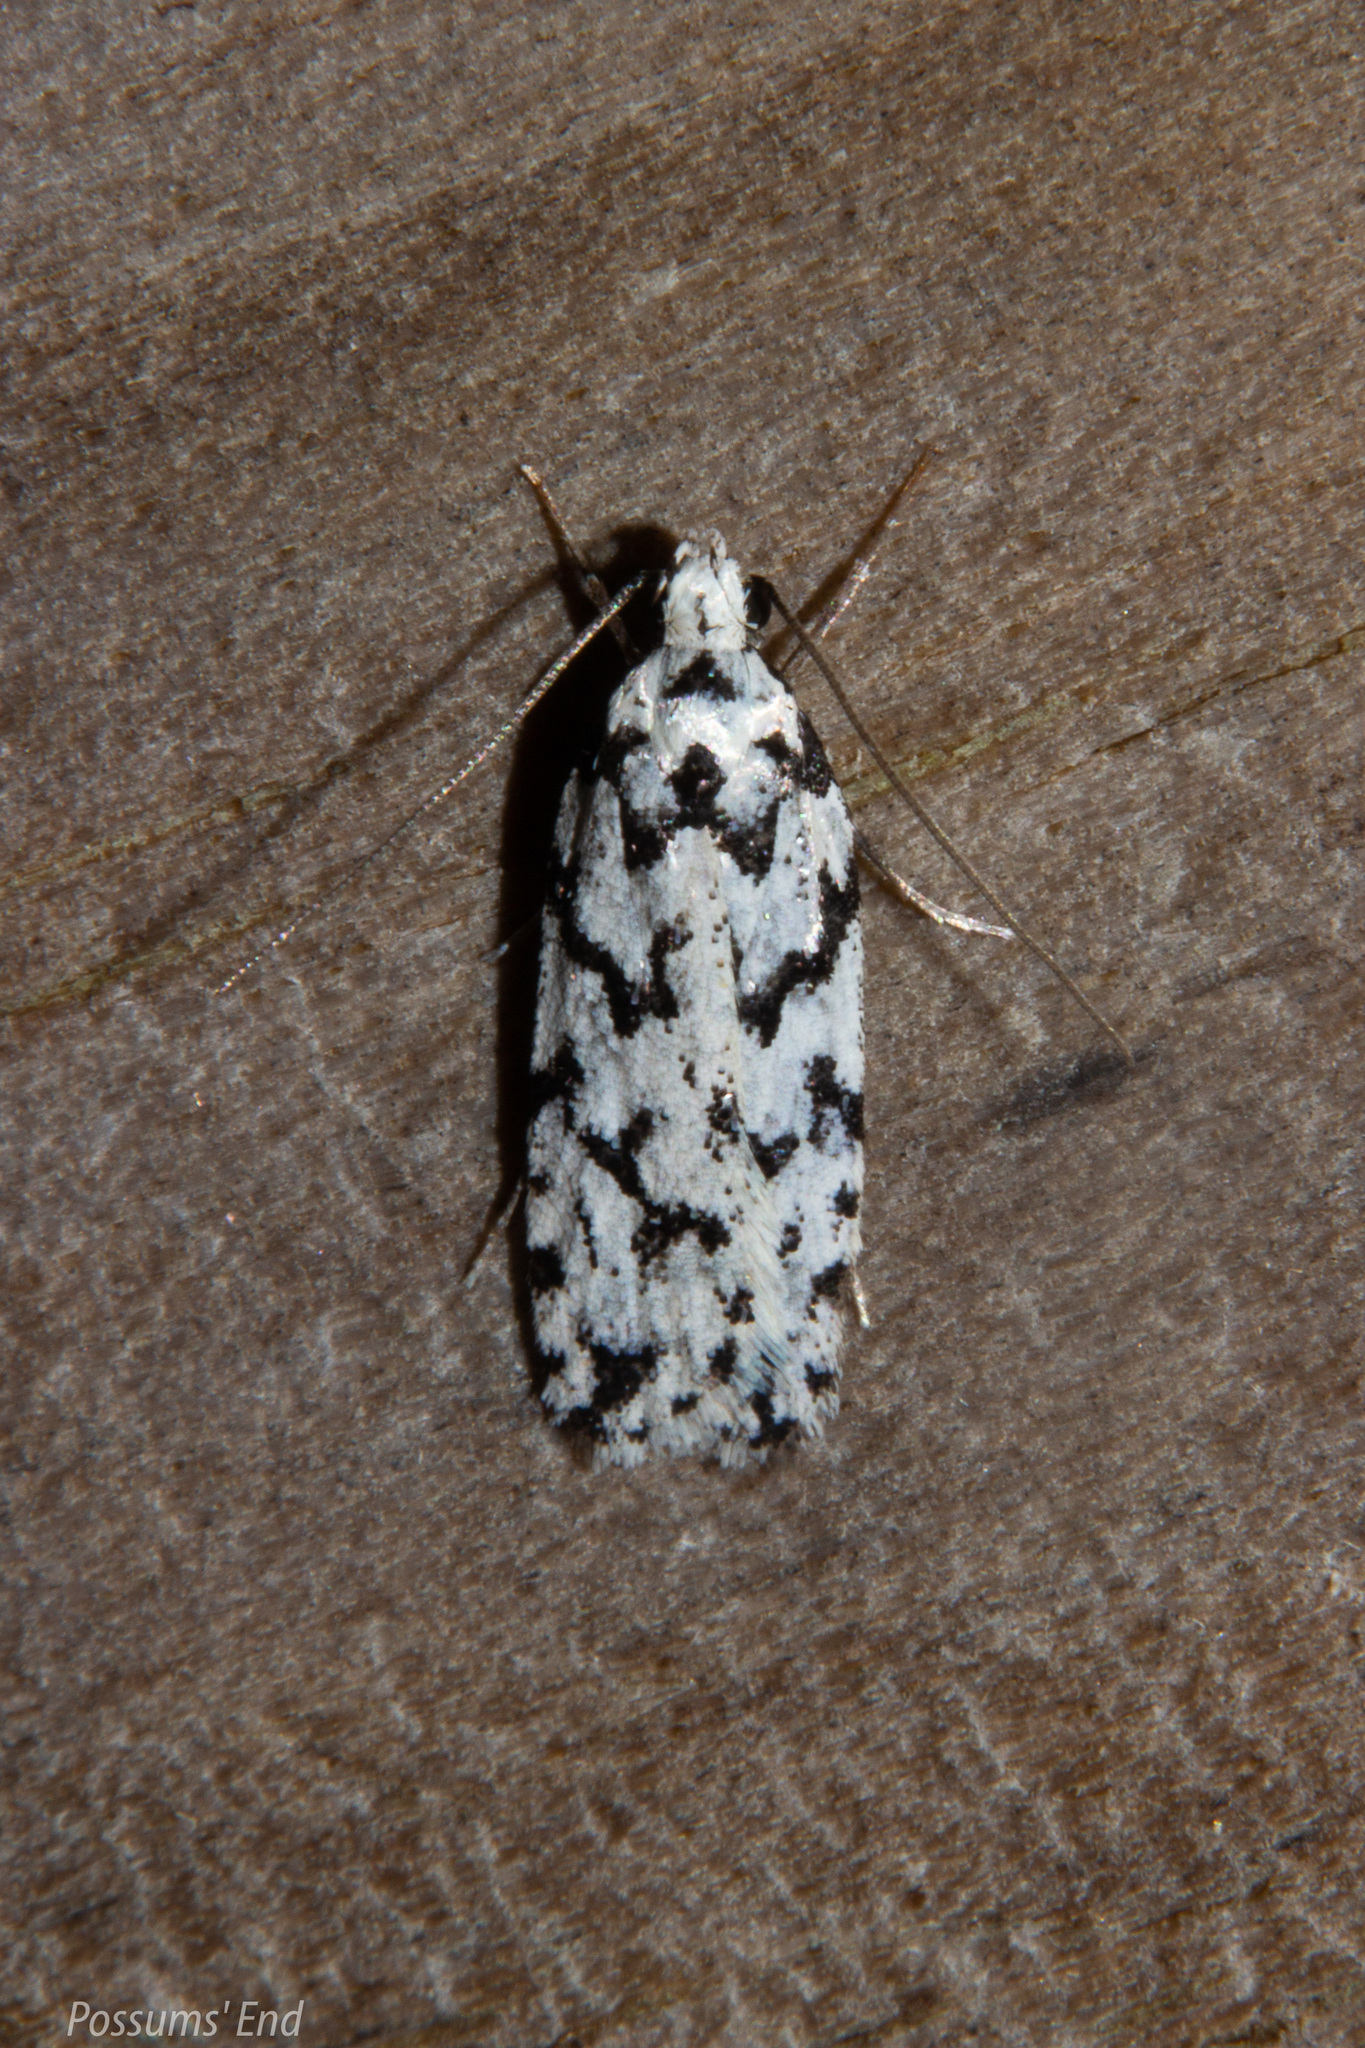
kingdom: Animalia
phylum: Arthropoda
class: Insecta
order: Lepidoptera
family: Oecophoridae
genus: Izatha
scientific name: Izatha katadiktya
